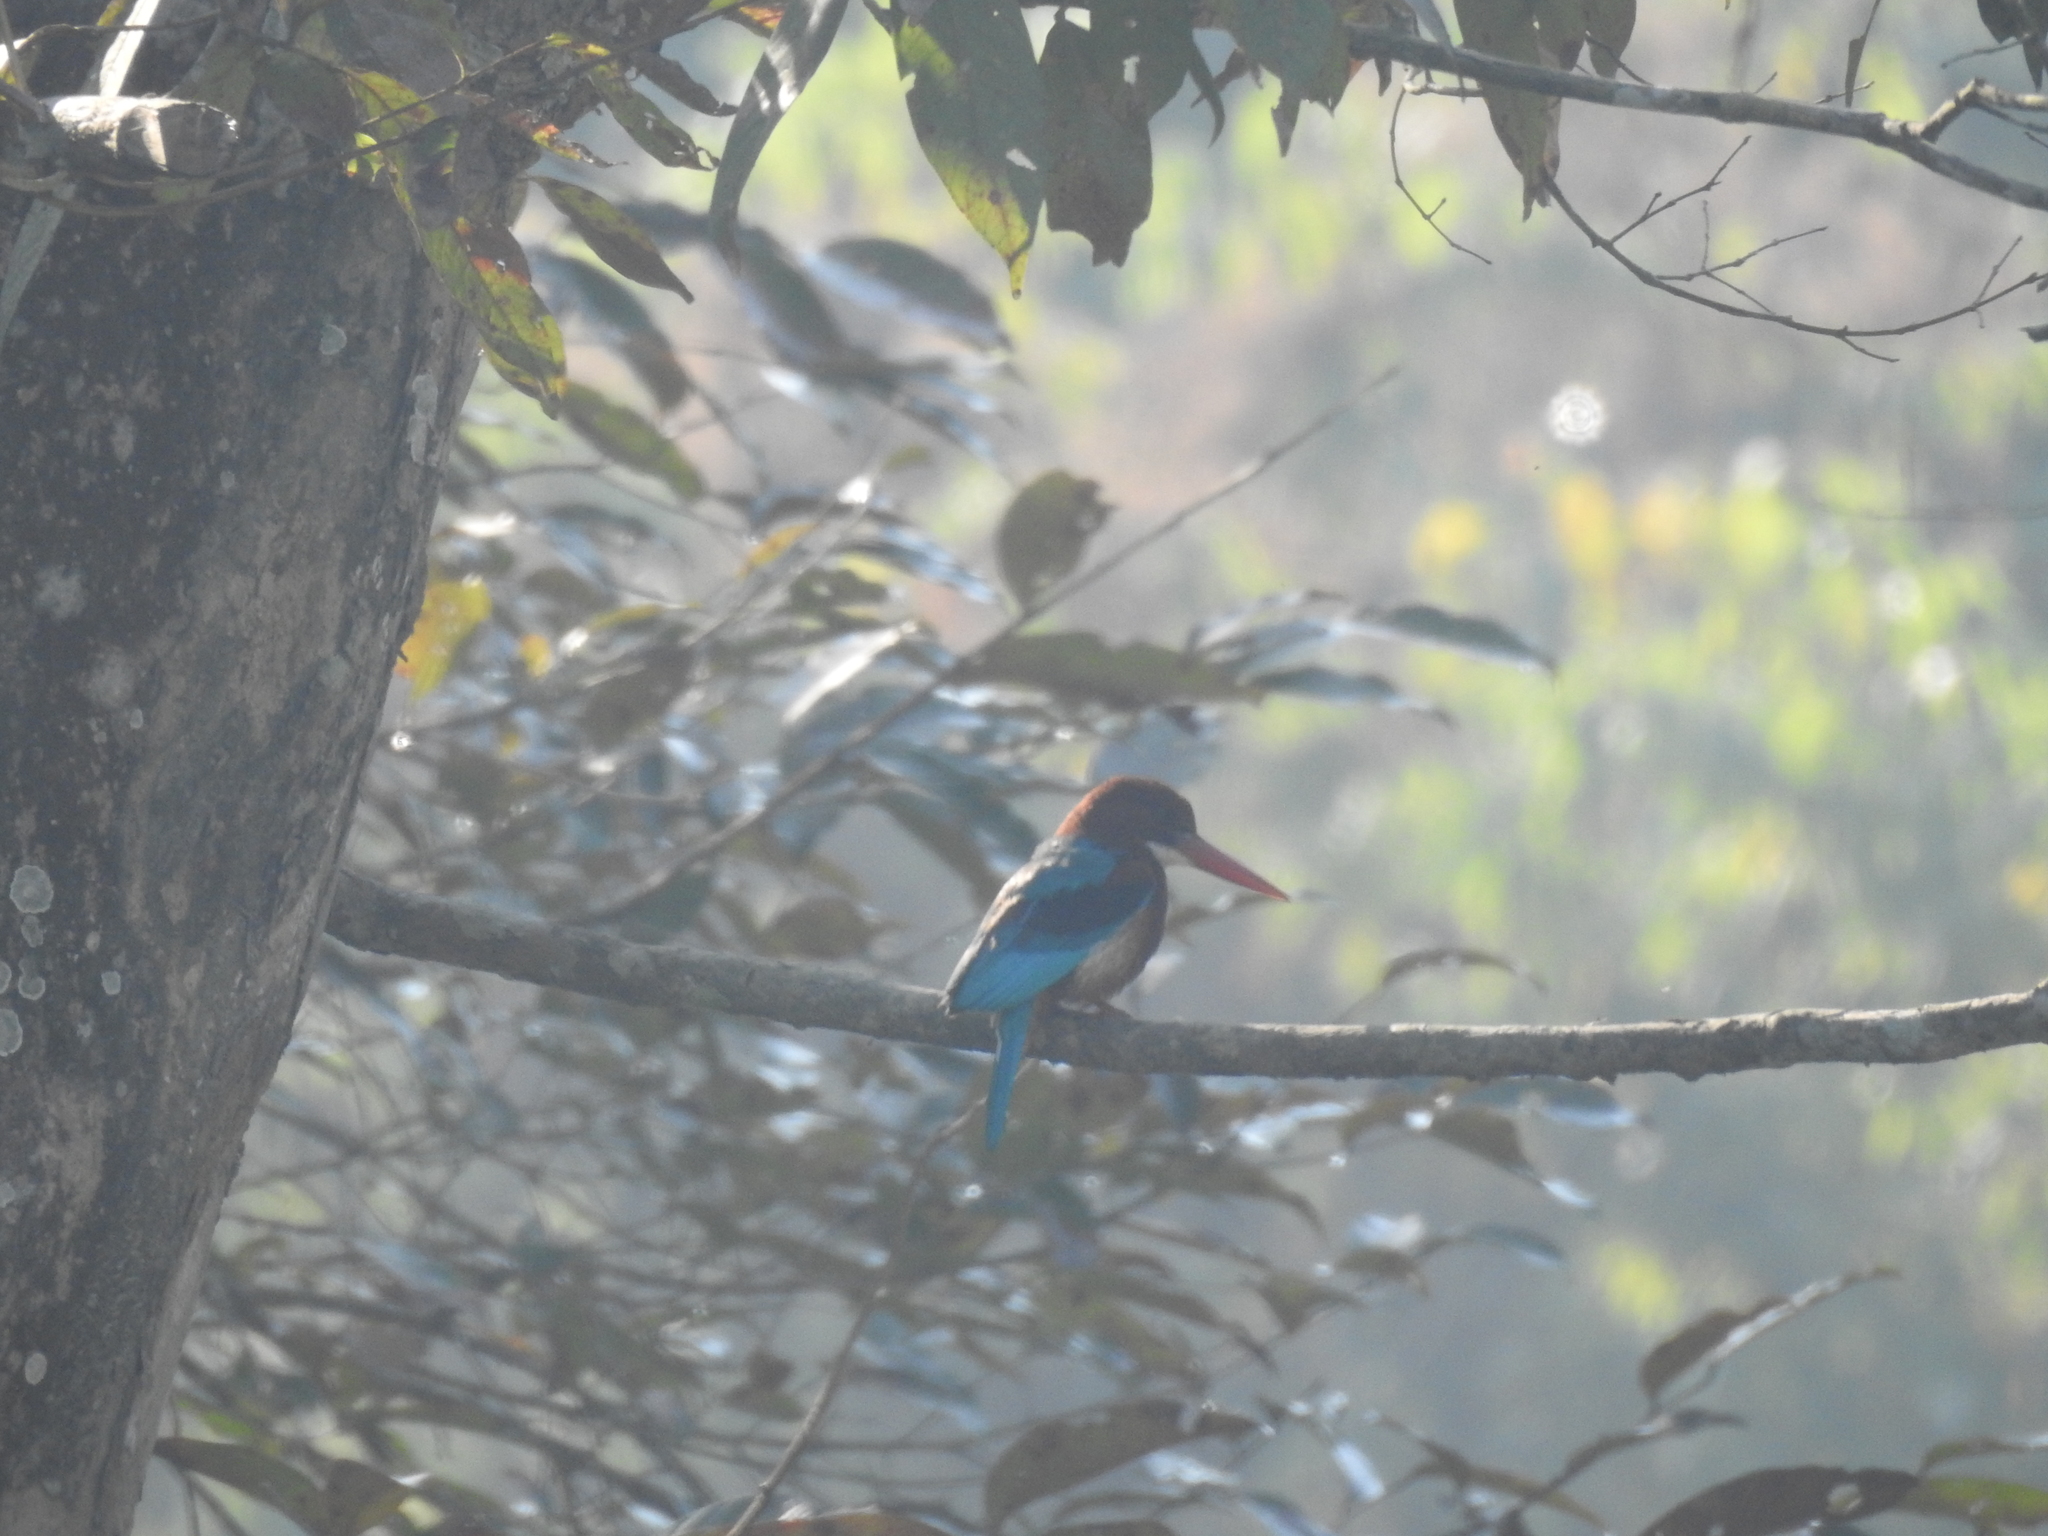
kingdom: Animalia
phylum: Chordata
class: Aves
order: Coraciiformes
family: Alcedinidae
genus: Halcyon
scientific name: Halcyon smyrnensis
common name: White-throated kingfisher
